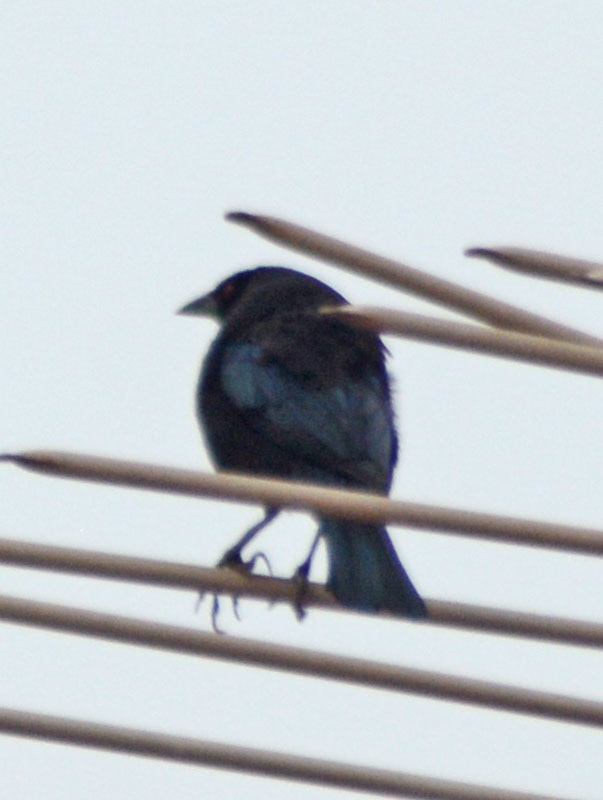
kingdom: Animalia
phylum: Chordata
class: Aves
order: Passeriformes
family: Icteridae
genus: Molothrus
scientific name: Molothrus aeneus
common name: Bronzed cowbird
